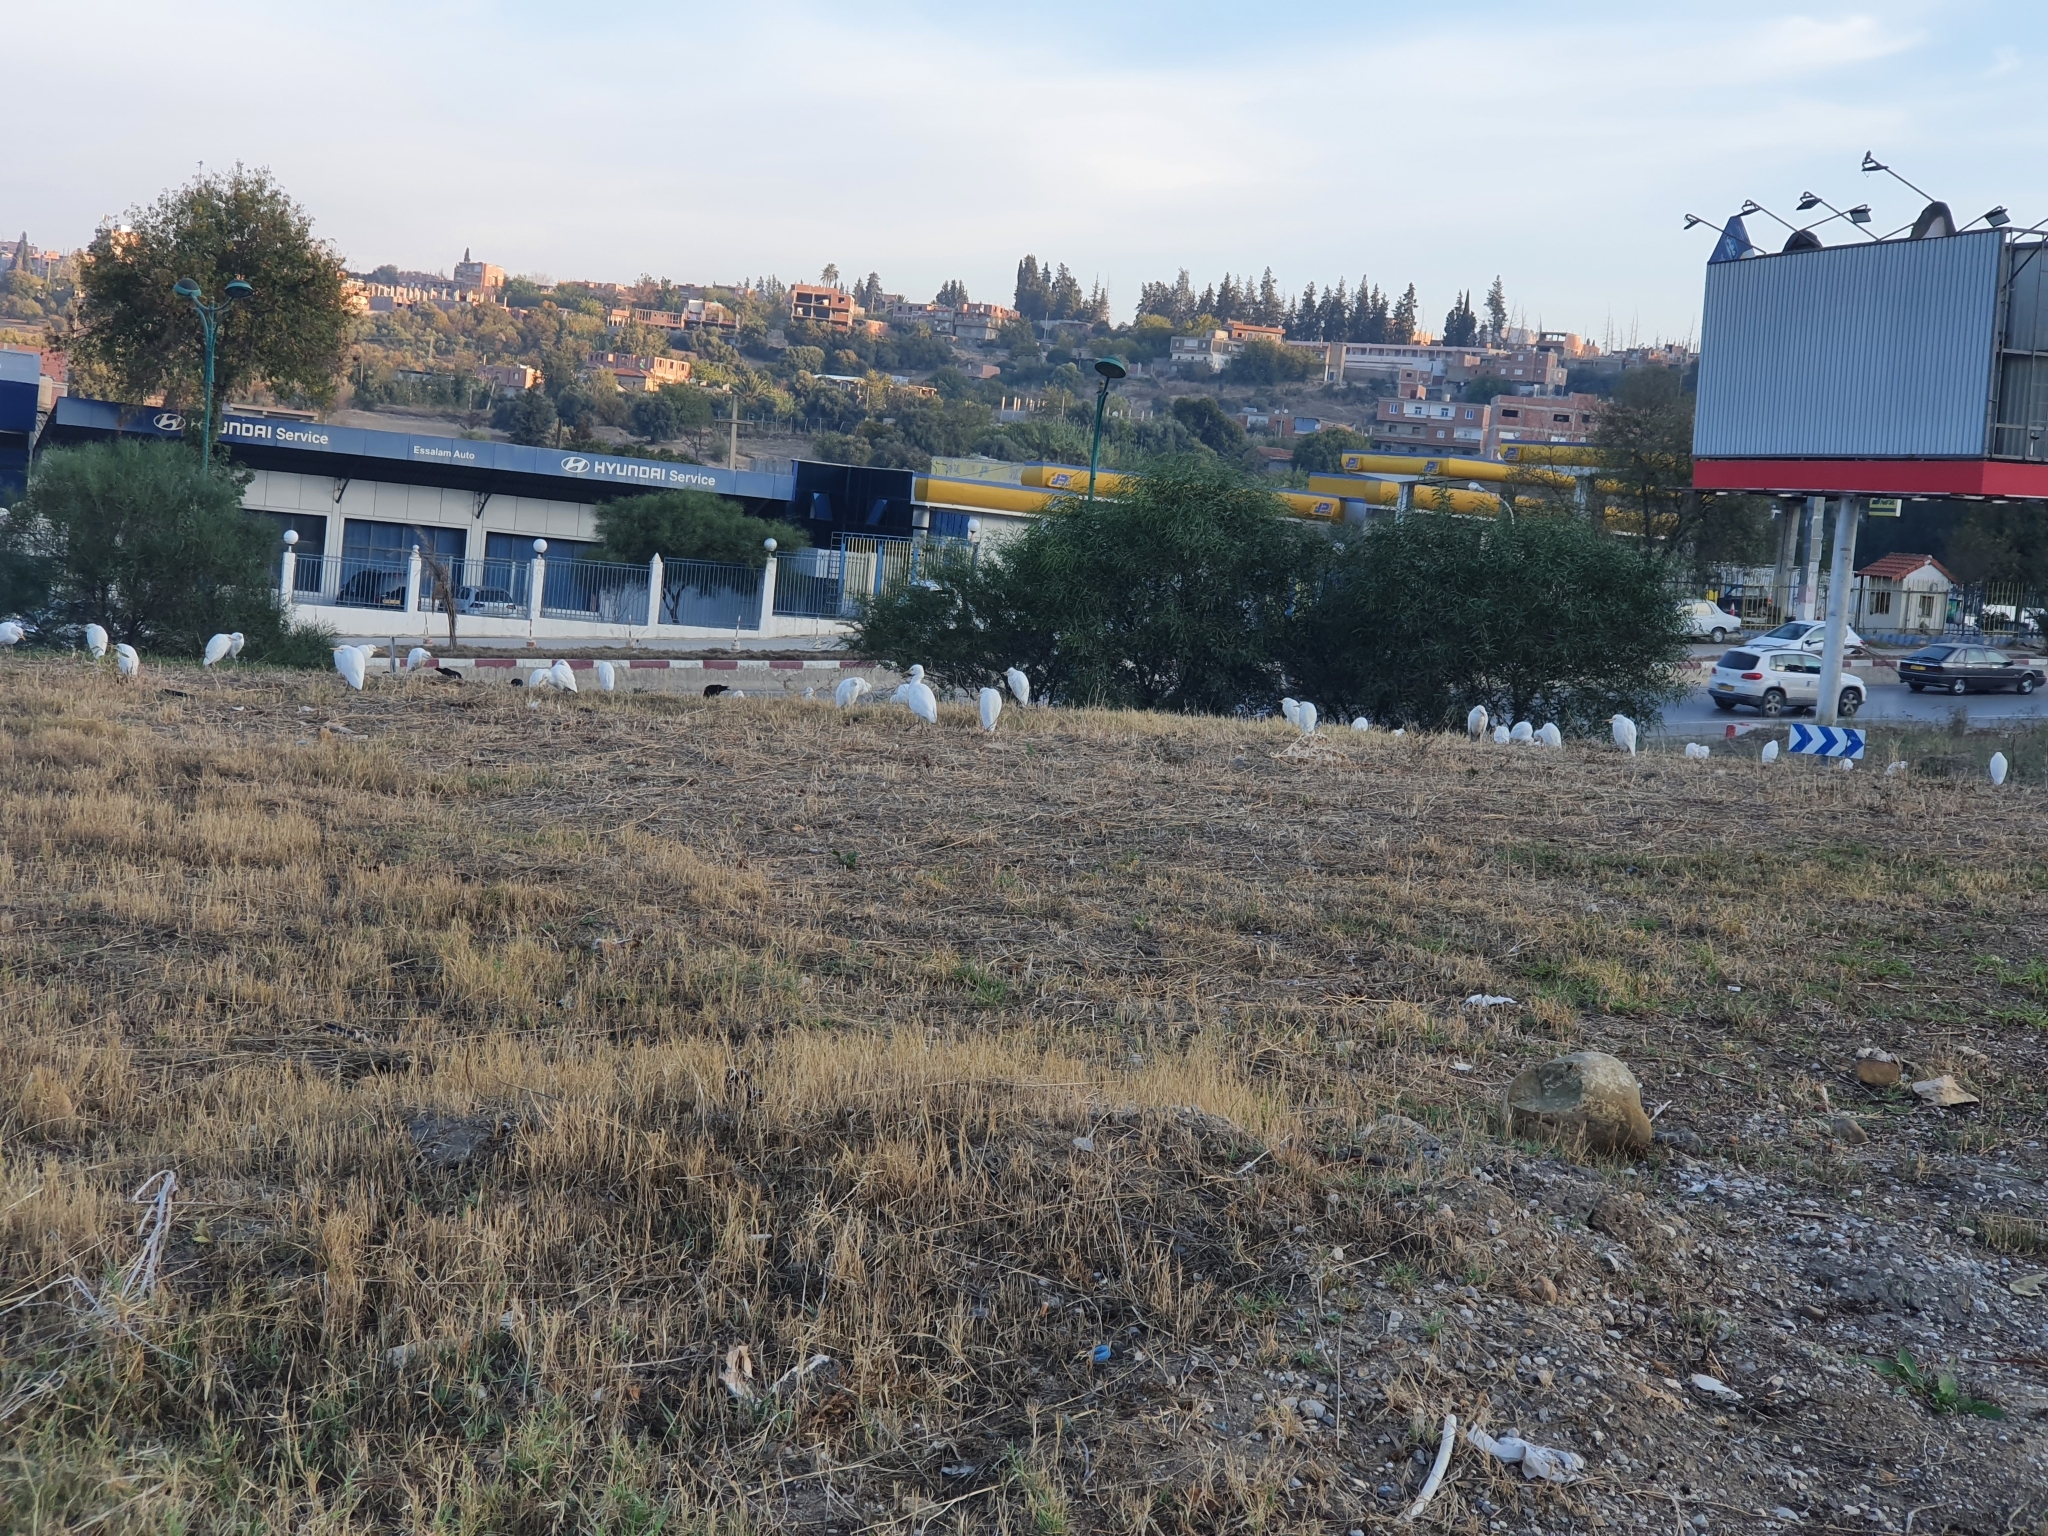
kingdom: Animalia
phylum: Chordata
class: Aves
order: Pelecaniformes
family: Ardeidae
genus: Bubulcus
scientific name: Bubulcus ibis
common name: Cattle egret
